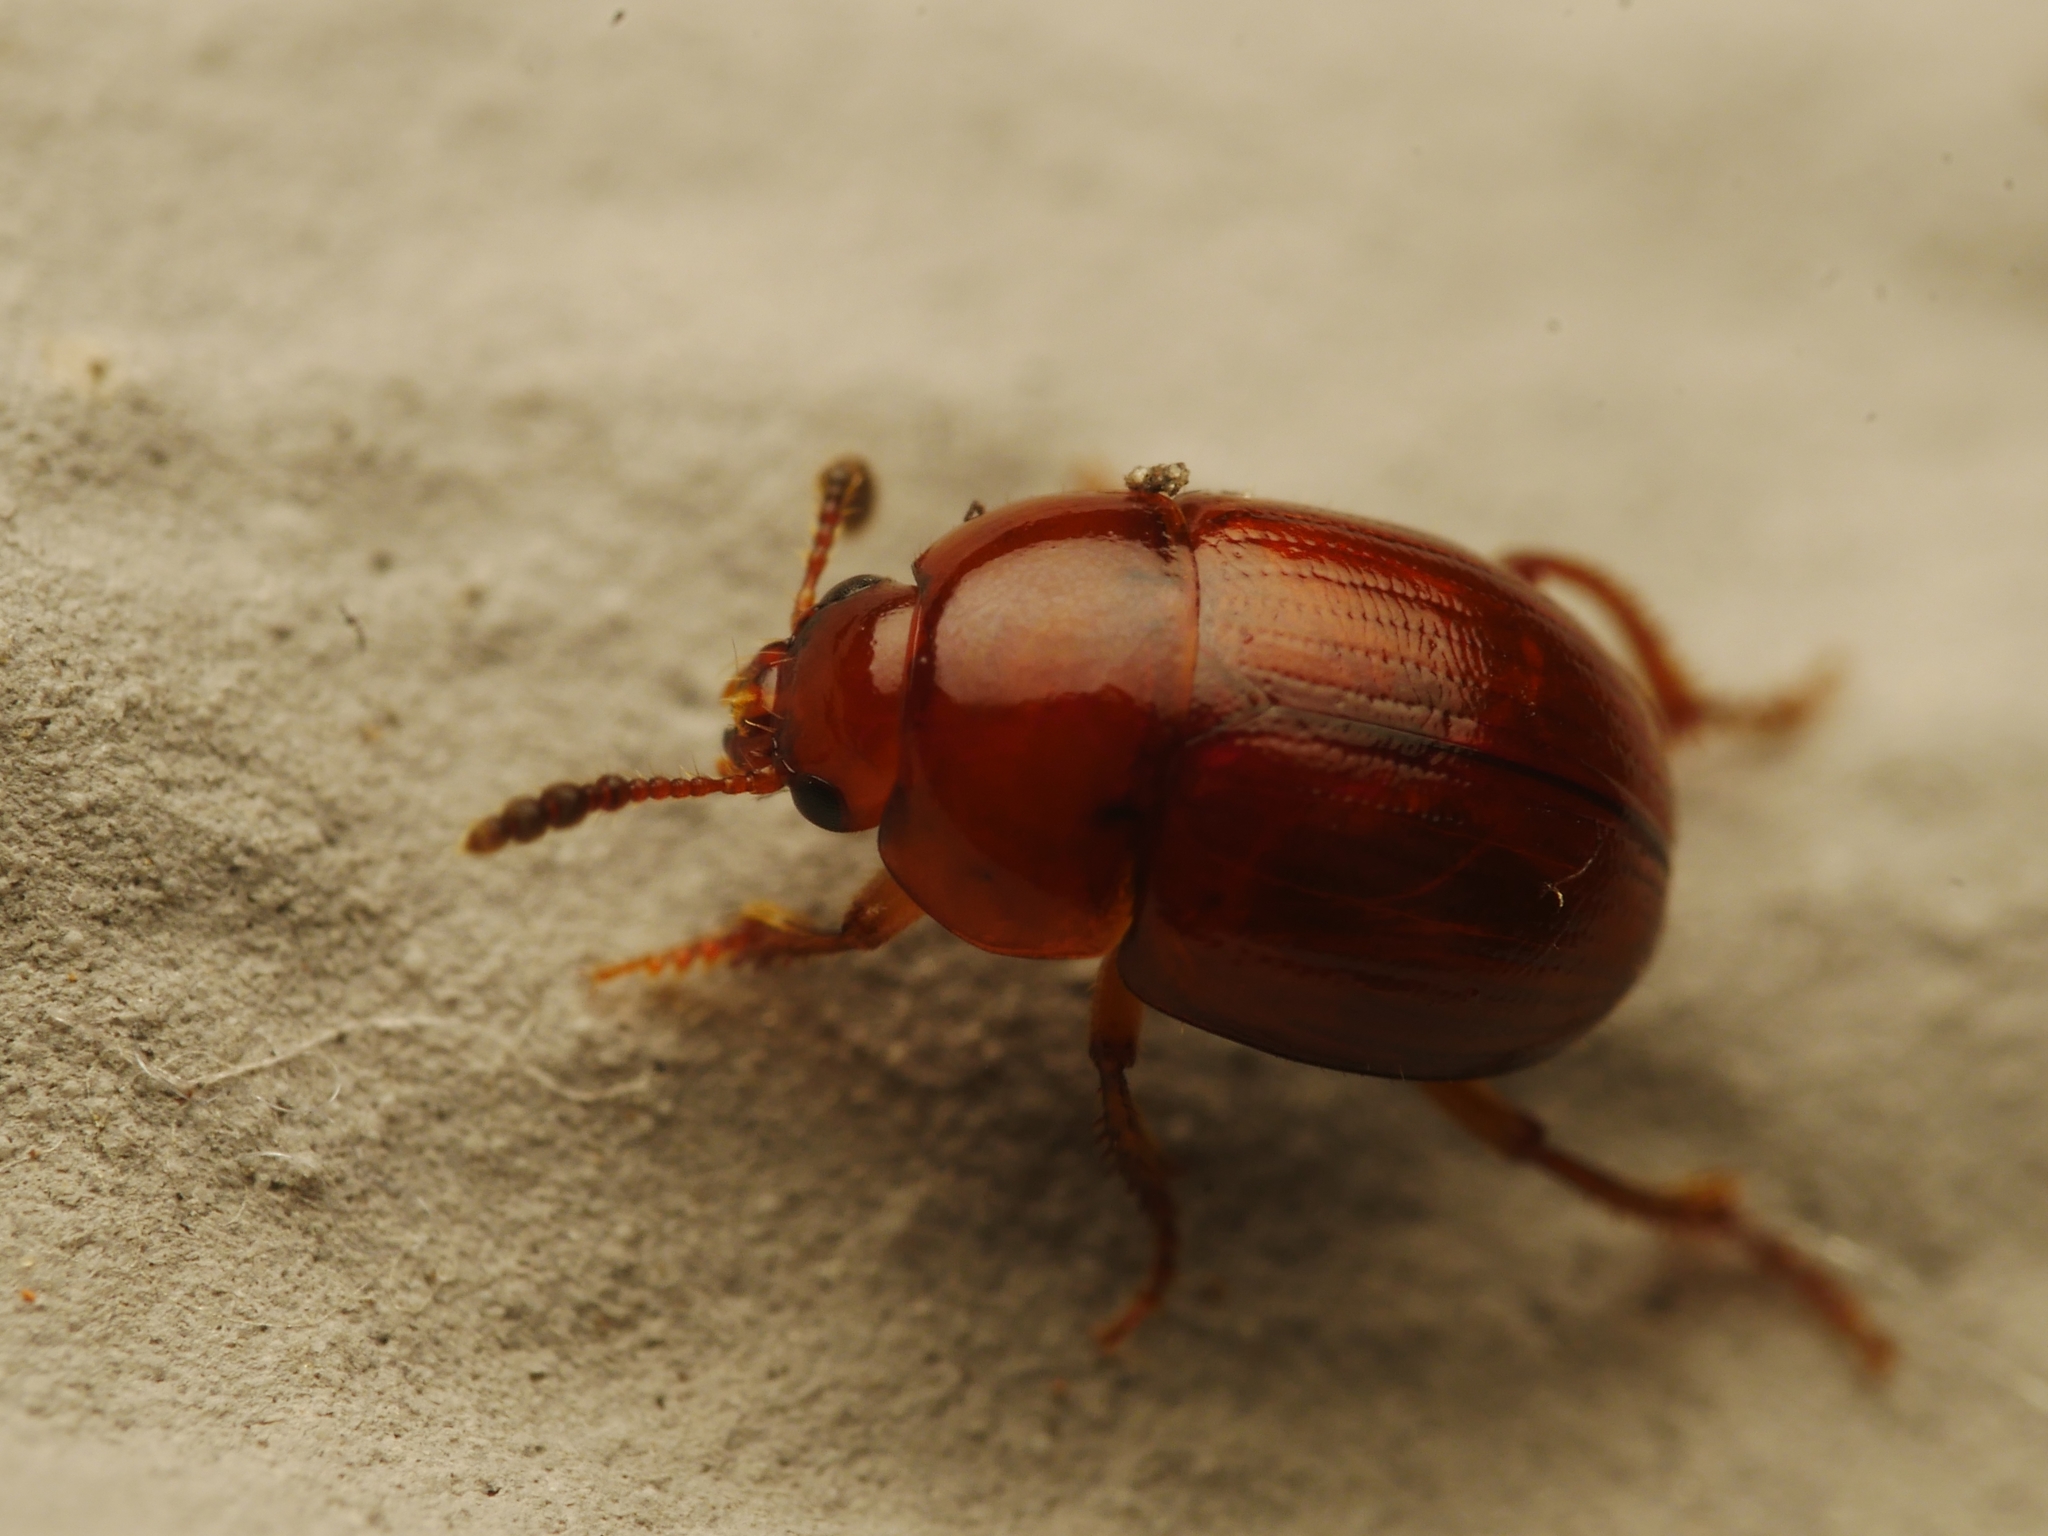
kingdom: Animalia
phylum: Arthropoda
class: Insecta
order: Coleoptera
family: Leiodidae
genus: Leiodes
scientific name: Leiodes rugosa
